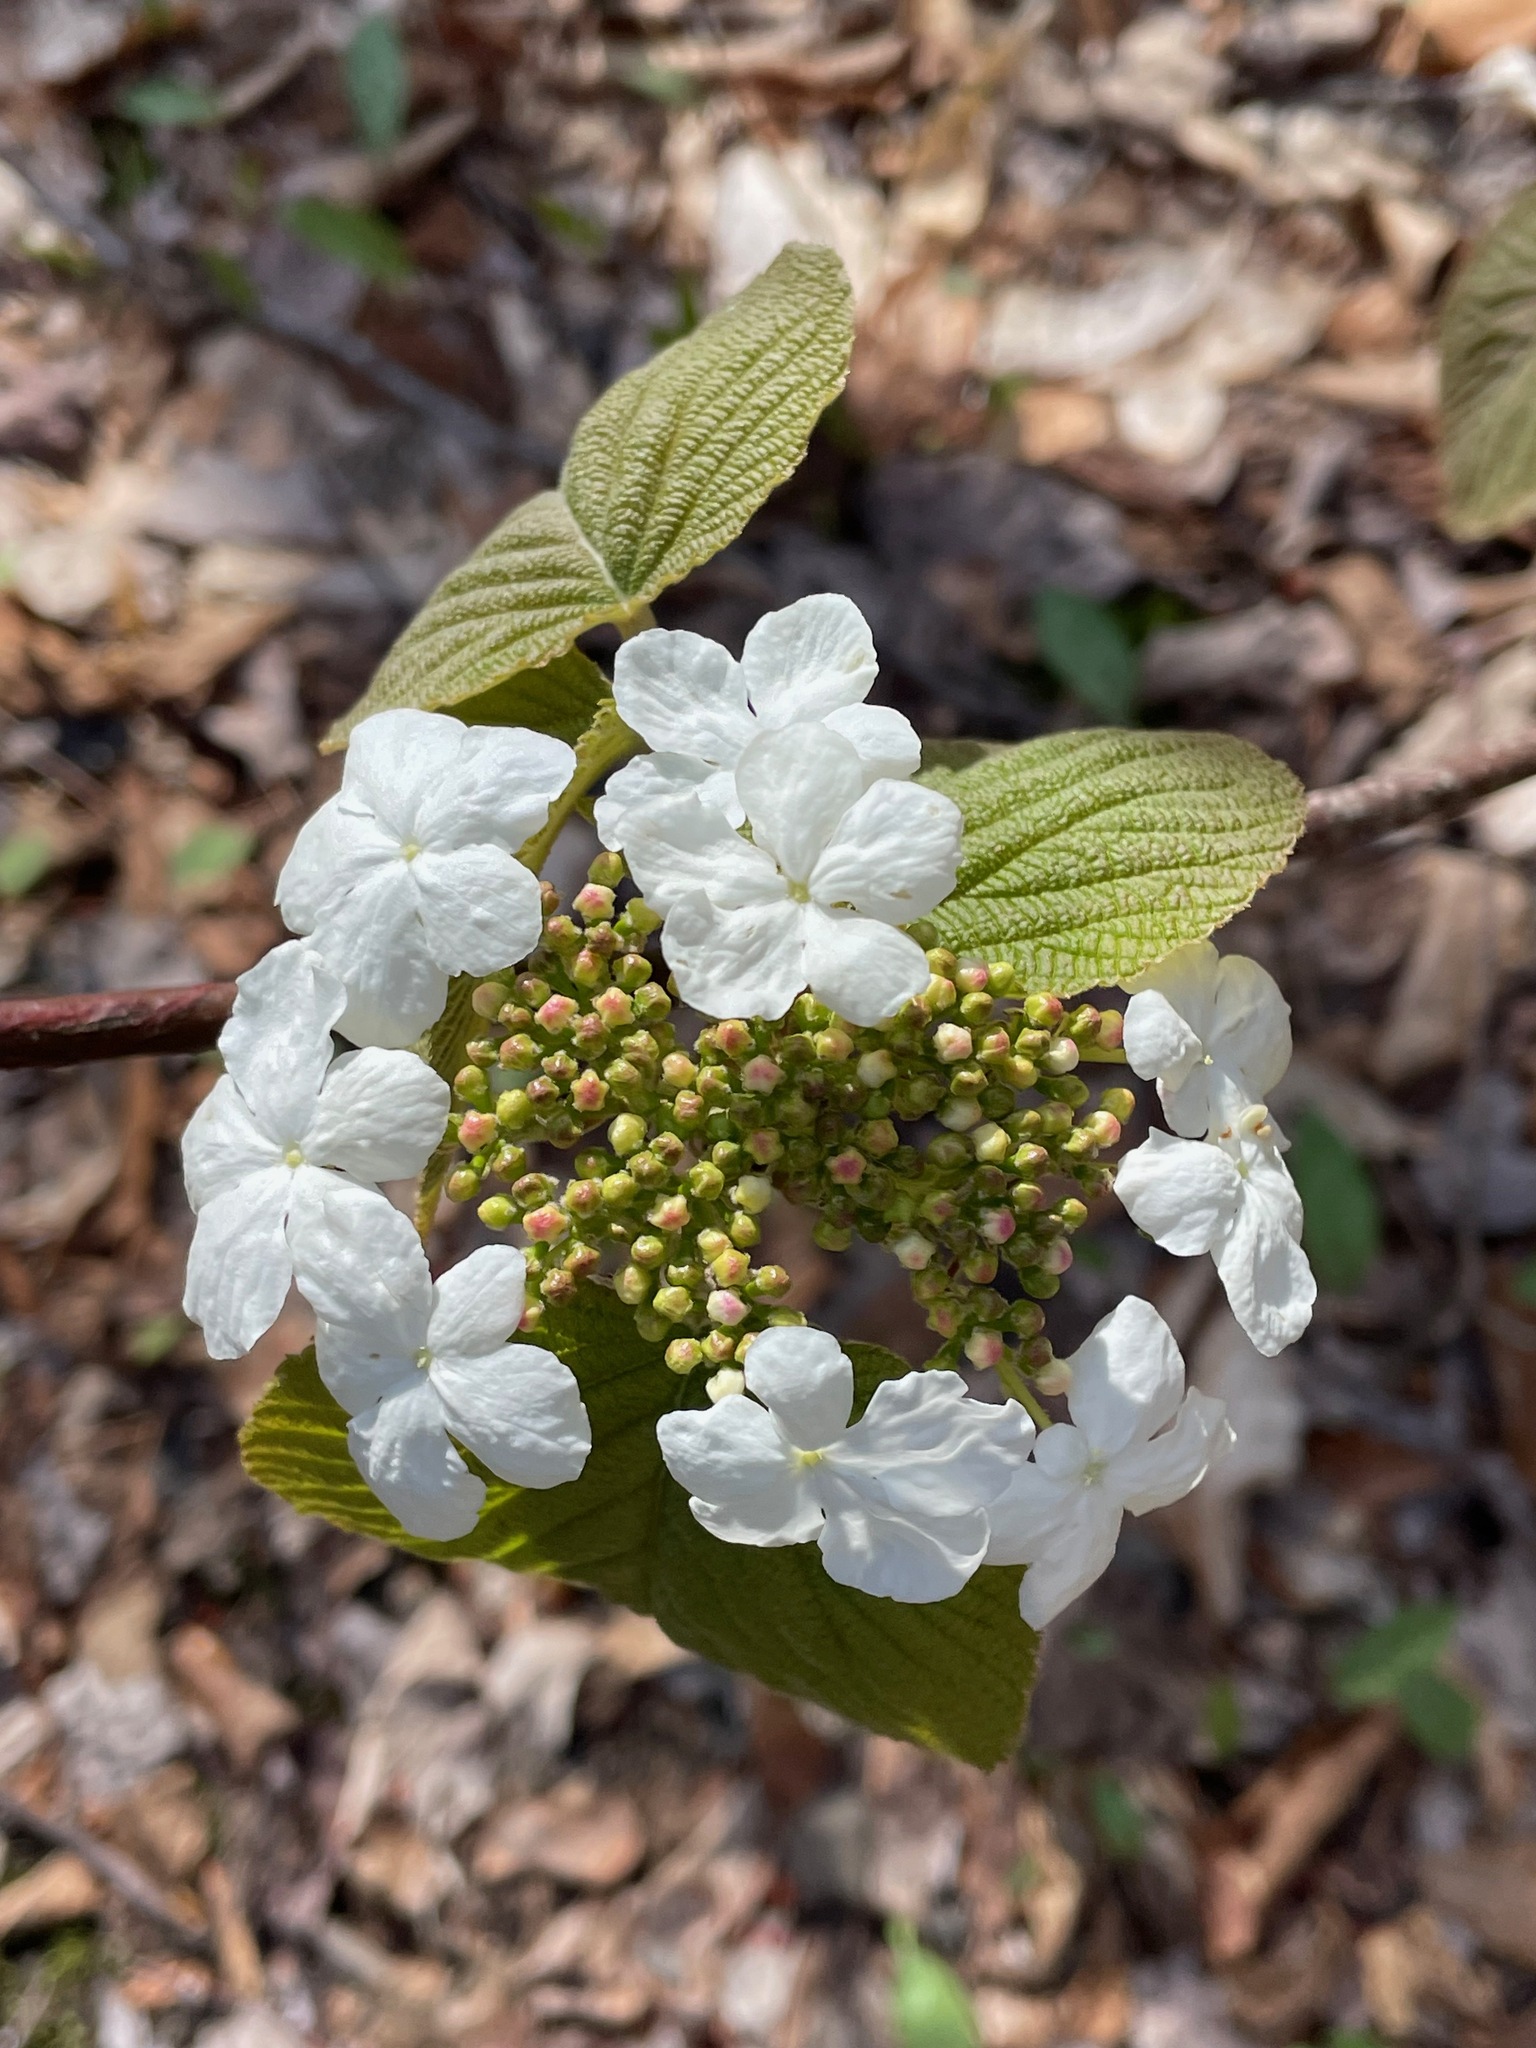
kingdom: Plantae
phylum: Tracheophyta
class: Magnoliopsida
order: Dipsacales
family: Viburnaceae
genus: Viburnum
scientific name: Viburnum lantanoides
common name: Hobblebush
